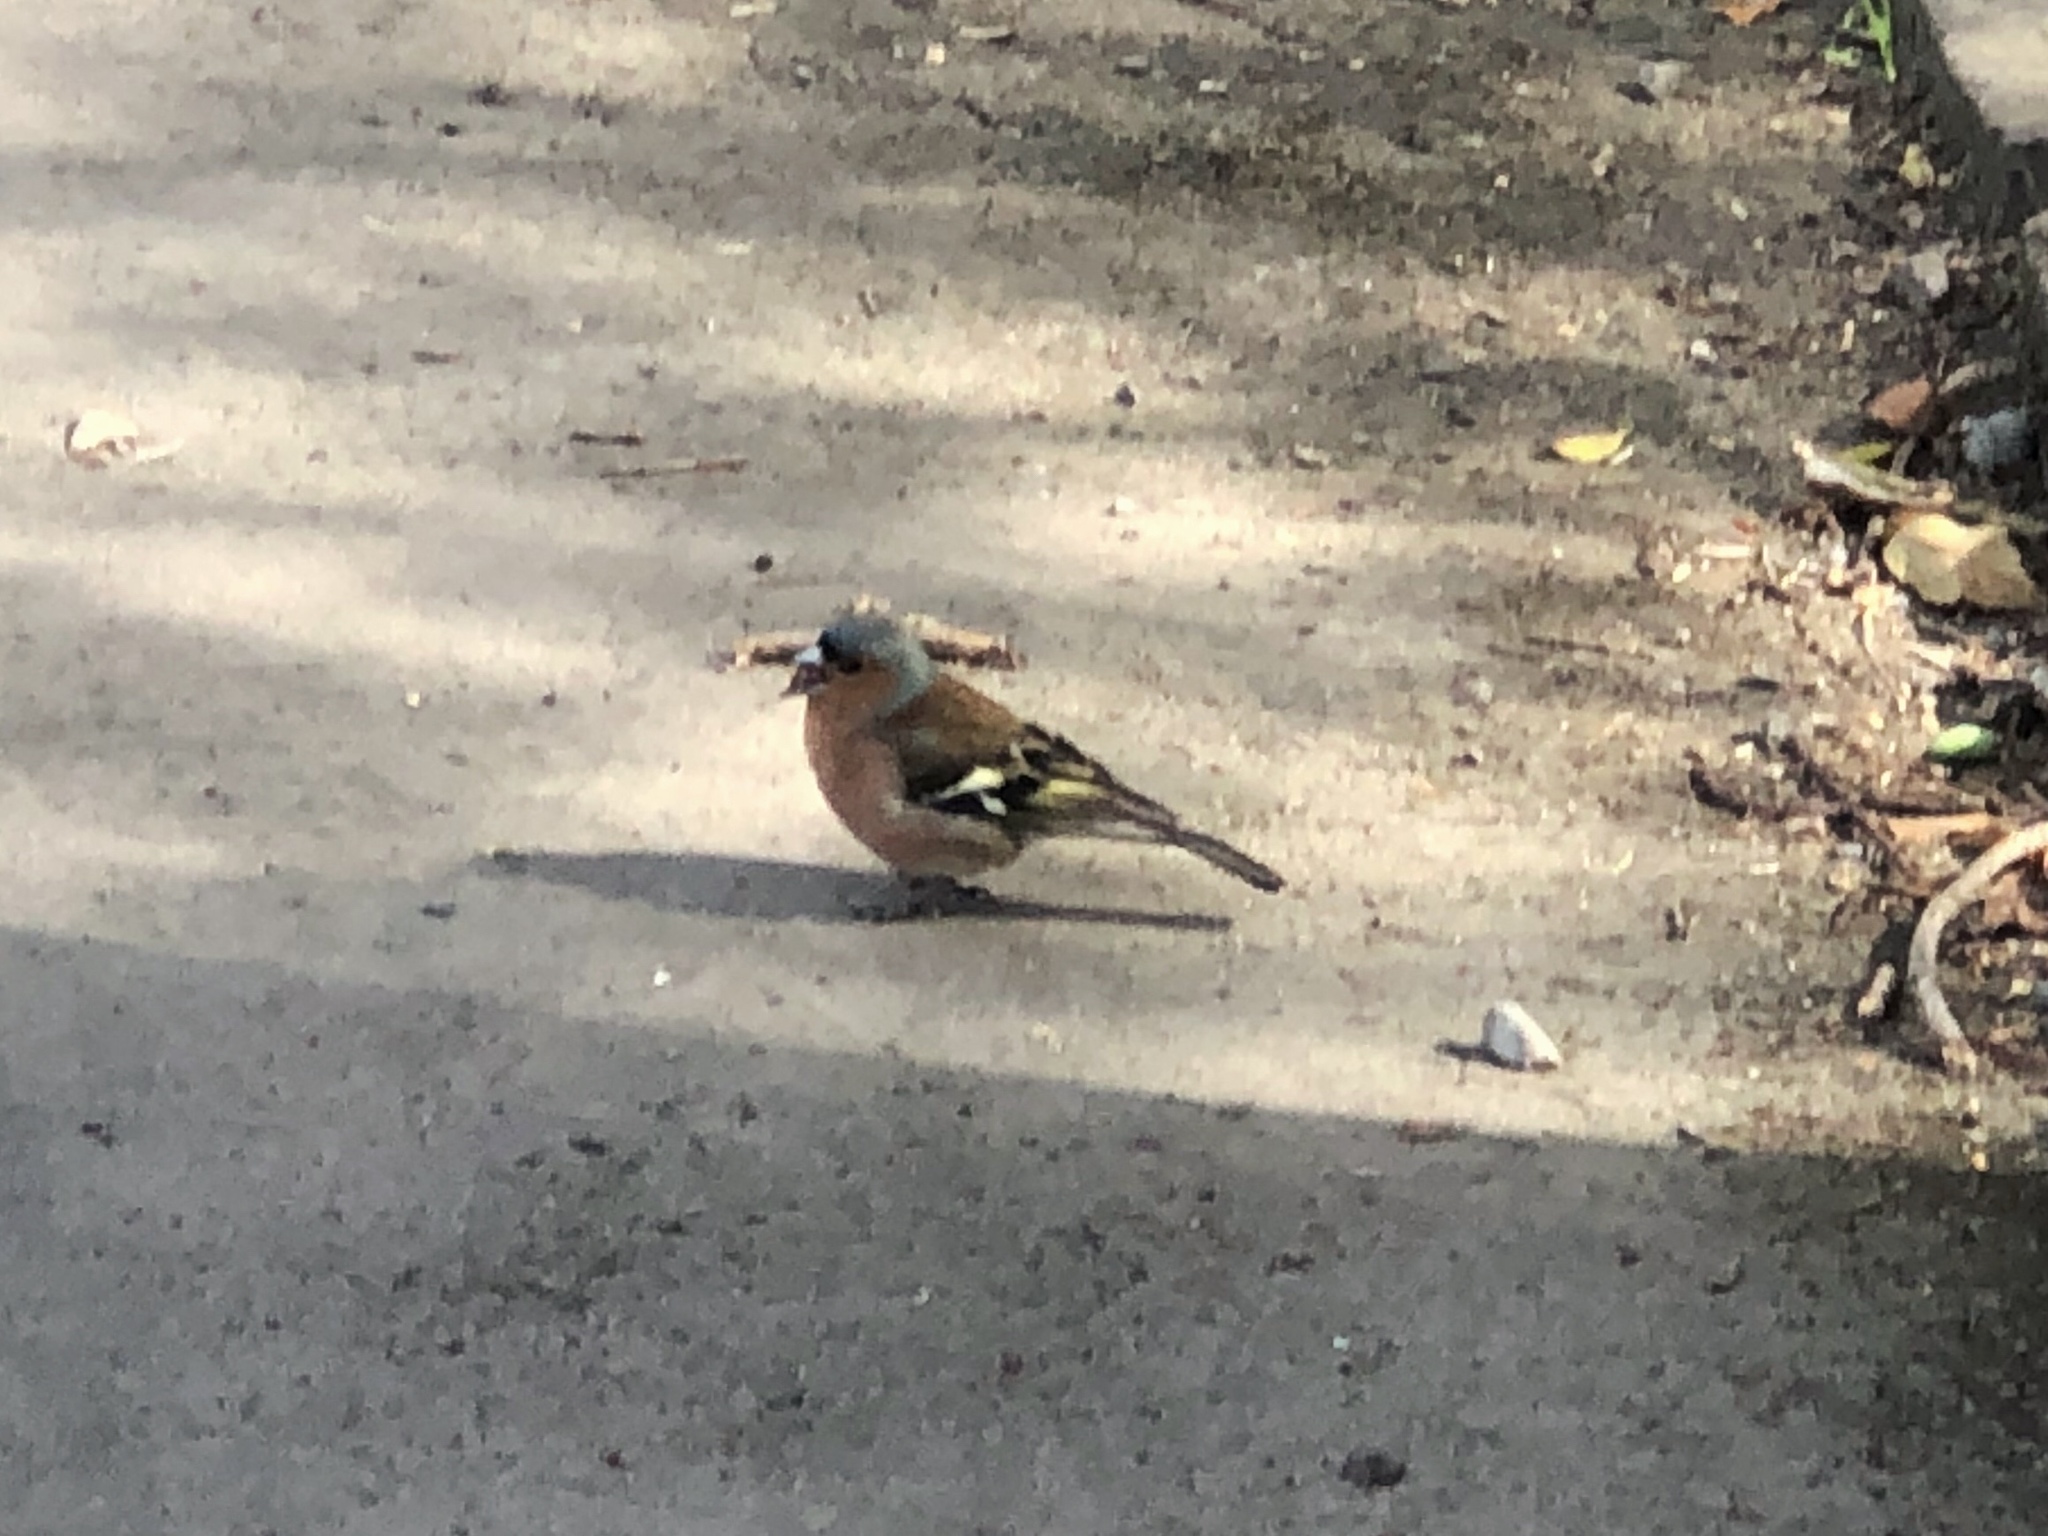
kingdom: Animalia
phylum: Chordata
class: Aves
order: Passeriformes
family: Fringillidae
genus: Fringilla
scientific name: Fringilla coelebs
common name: Common chaffinch
